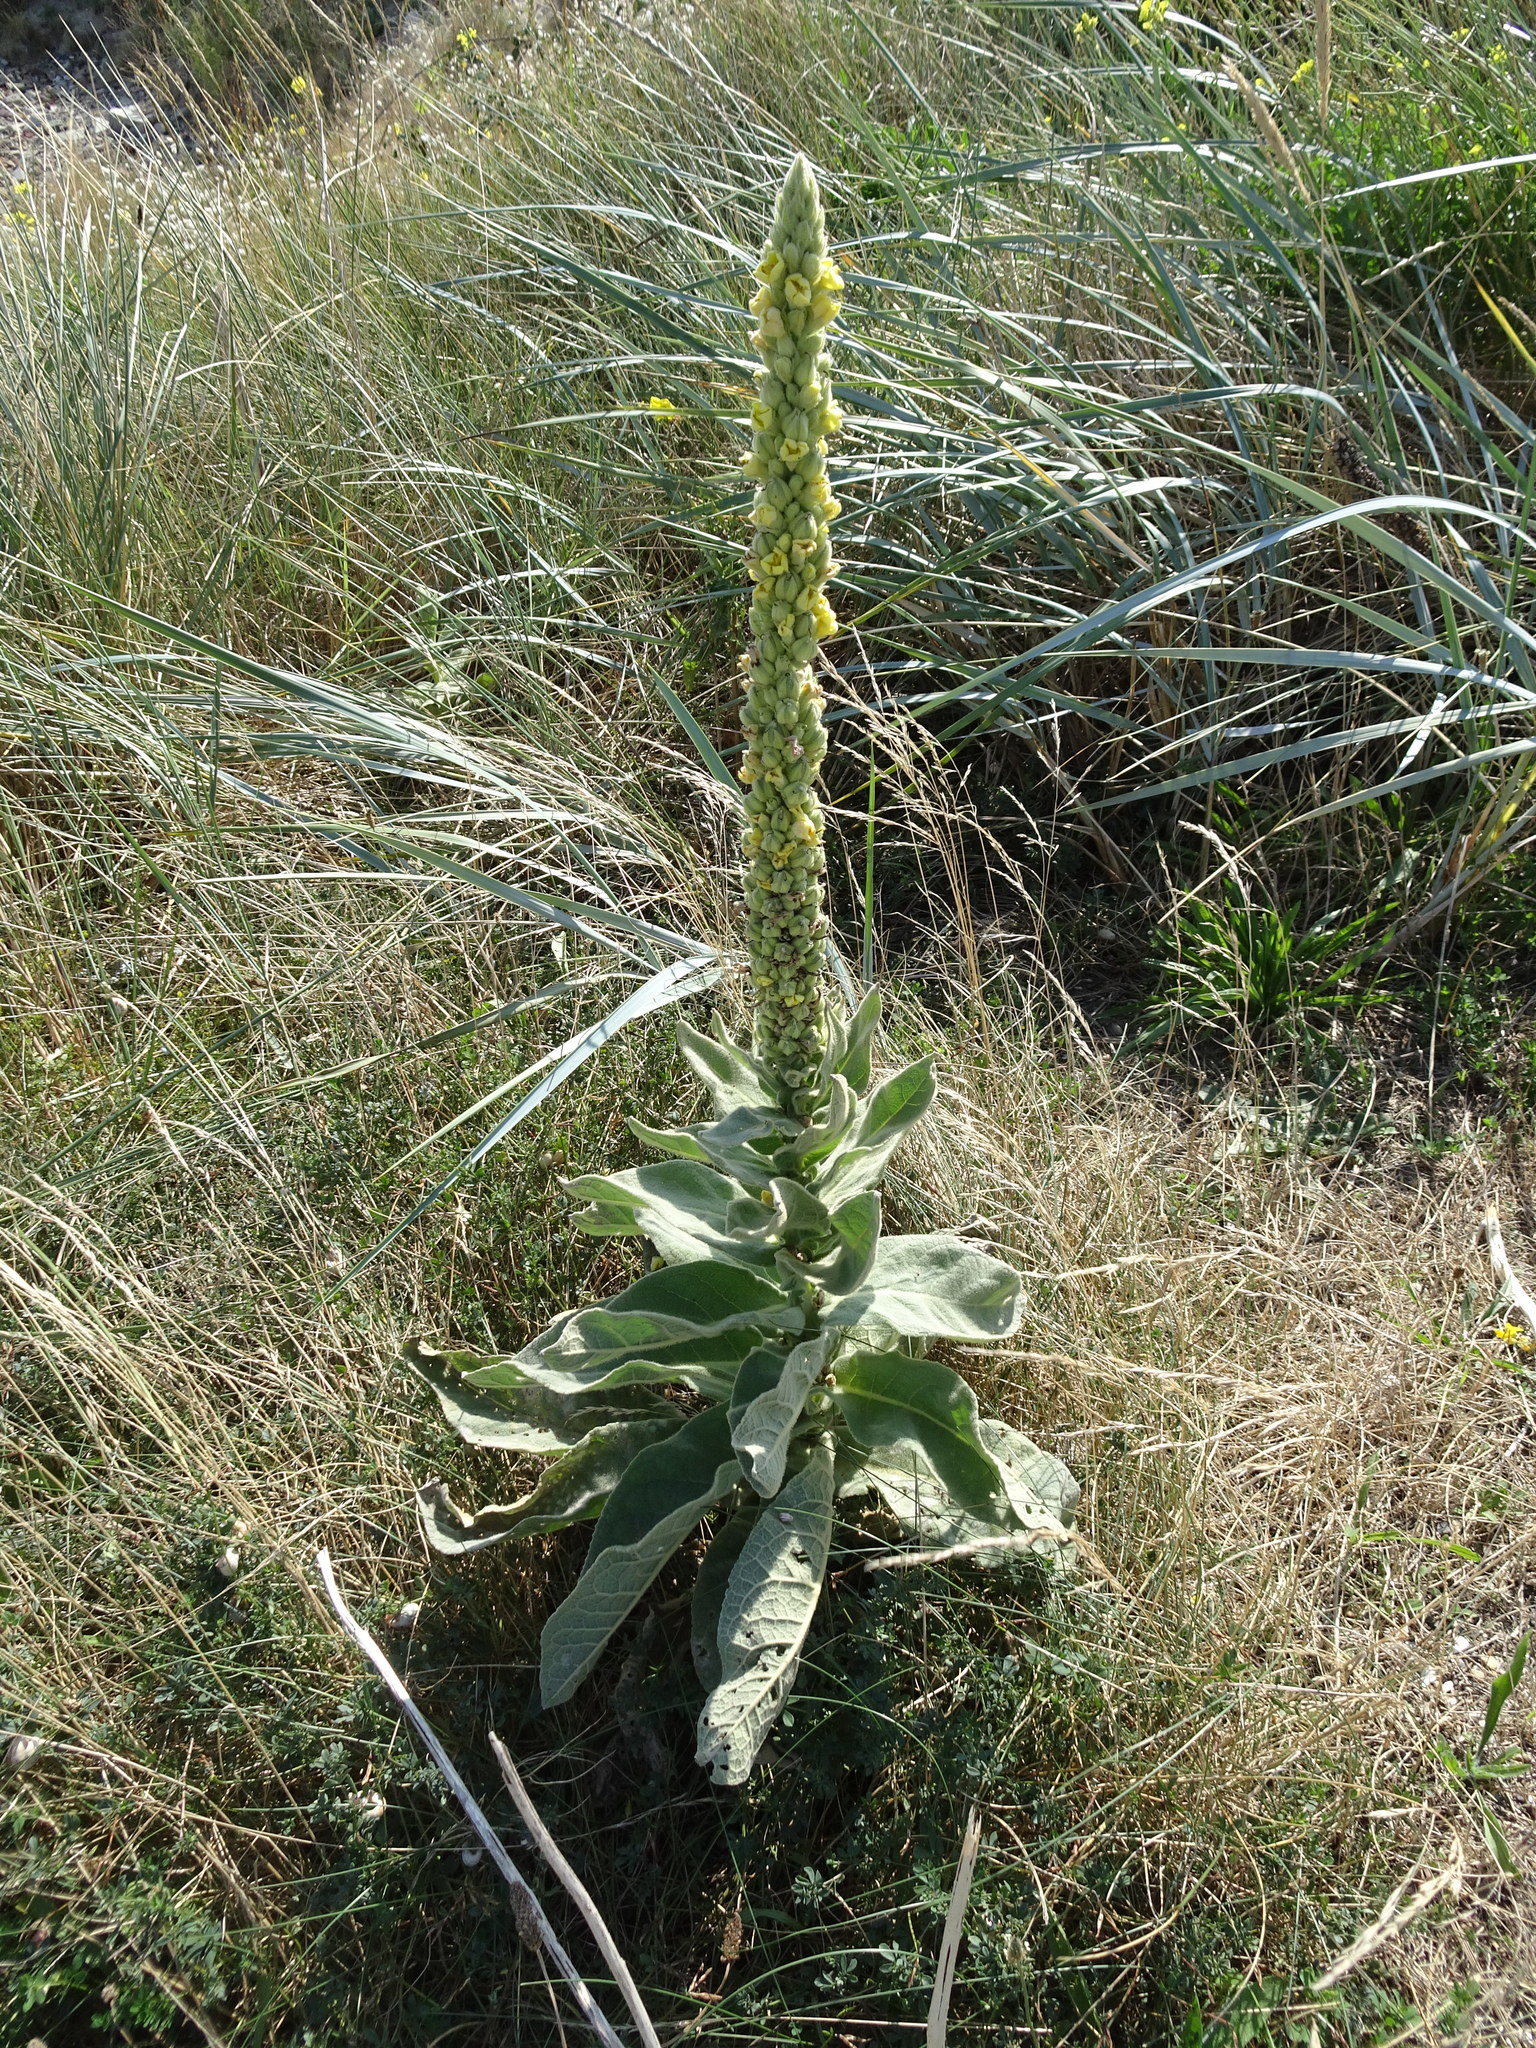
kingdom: Plantae
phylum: Tracheophyta
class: Magnoliopsida
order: Lamiales
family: Scrophulariaceae
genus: Verbascum
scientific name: Verbascum thapsus
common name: Common mullein
